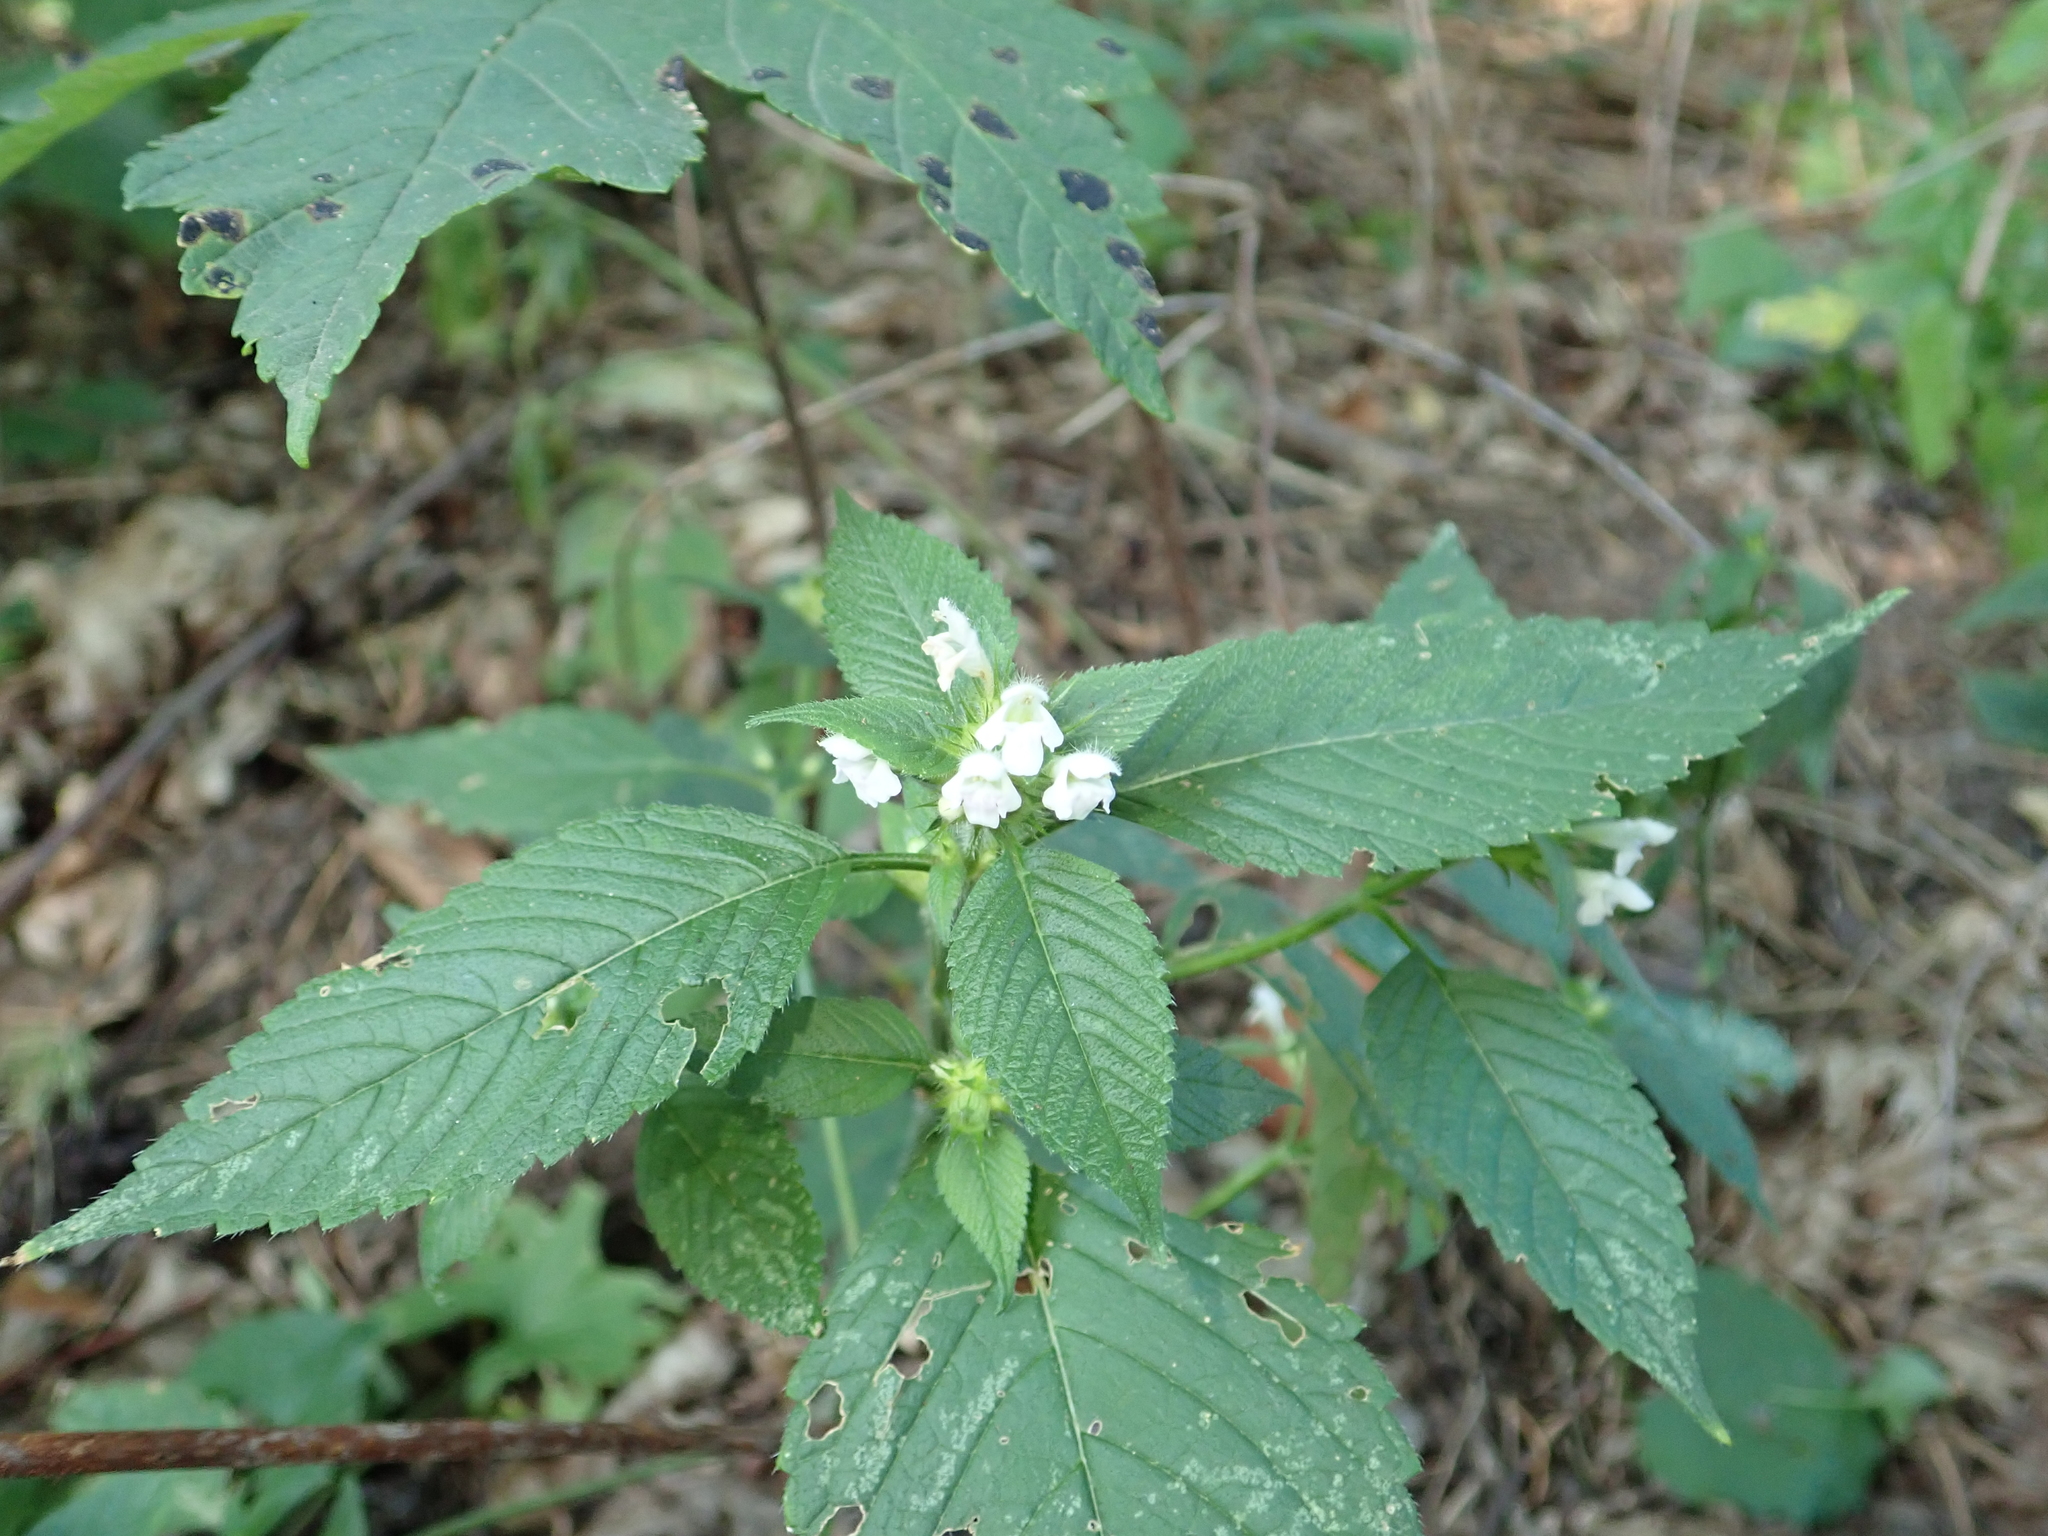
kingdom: Plantae
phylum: Tracheophyta
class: Magnoliopsida
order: Lamiales
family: Lamiaceae
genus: Galeopsis
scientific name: Galeopsis tetrahit
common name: Common hemp-nettle
